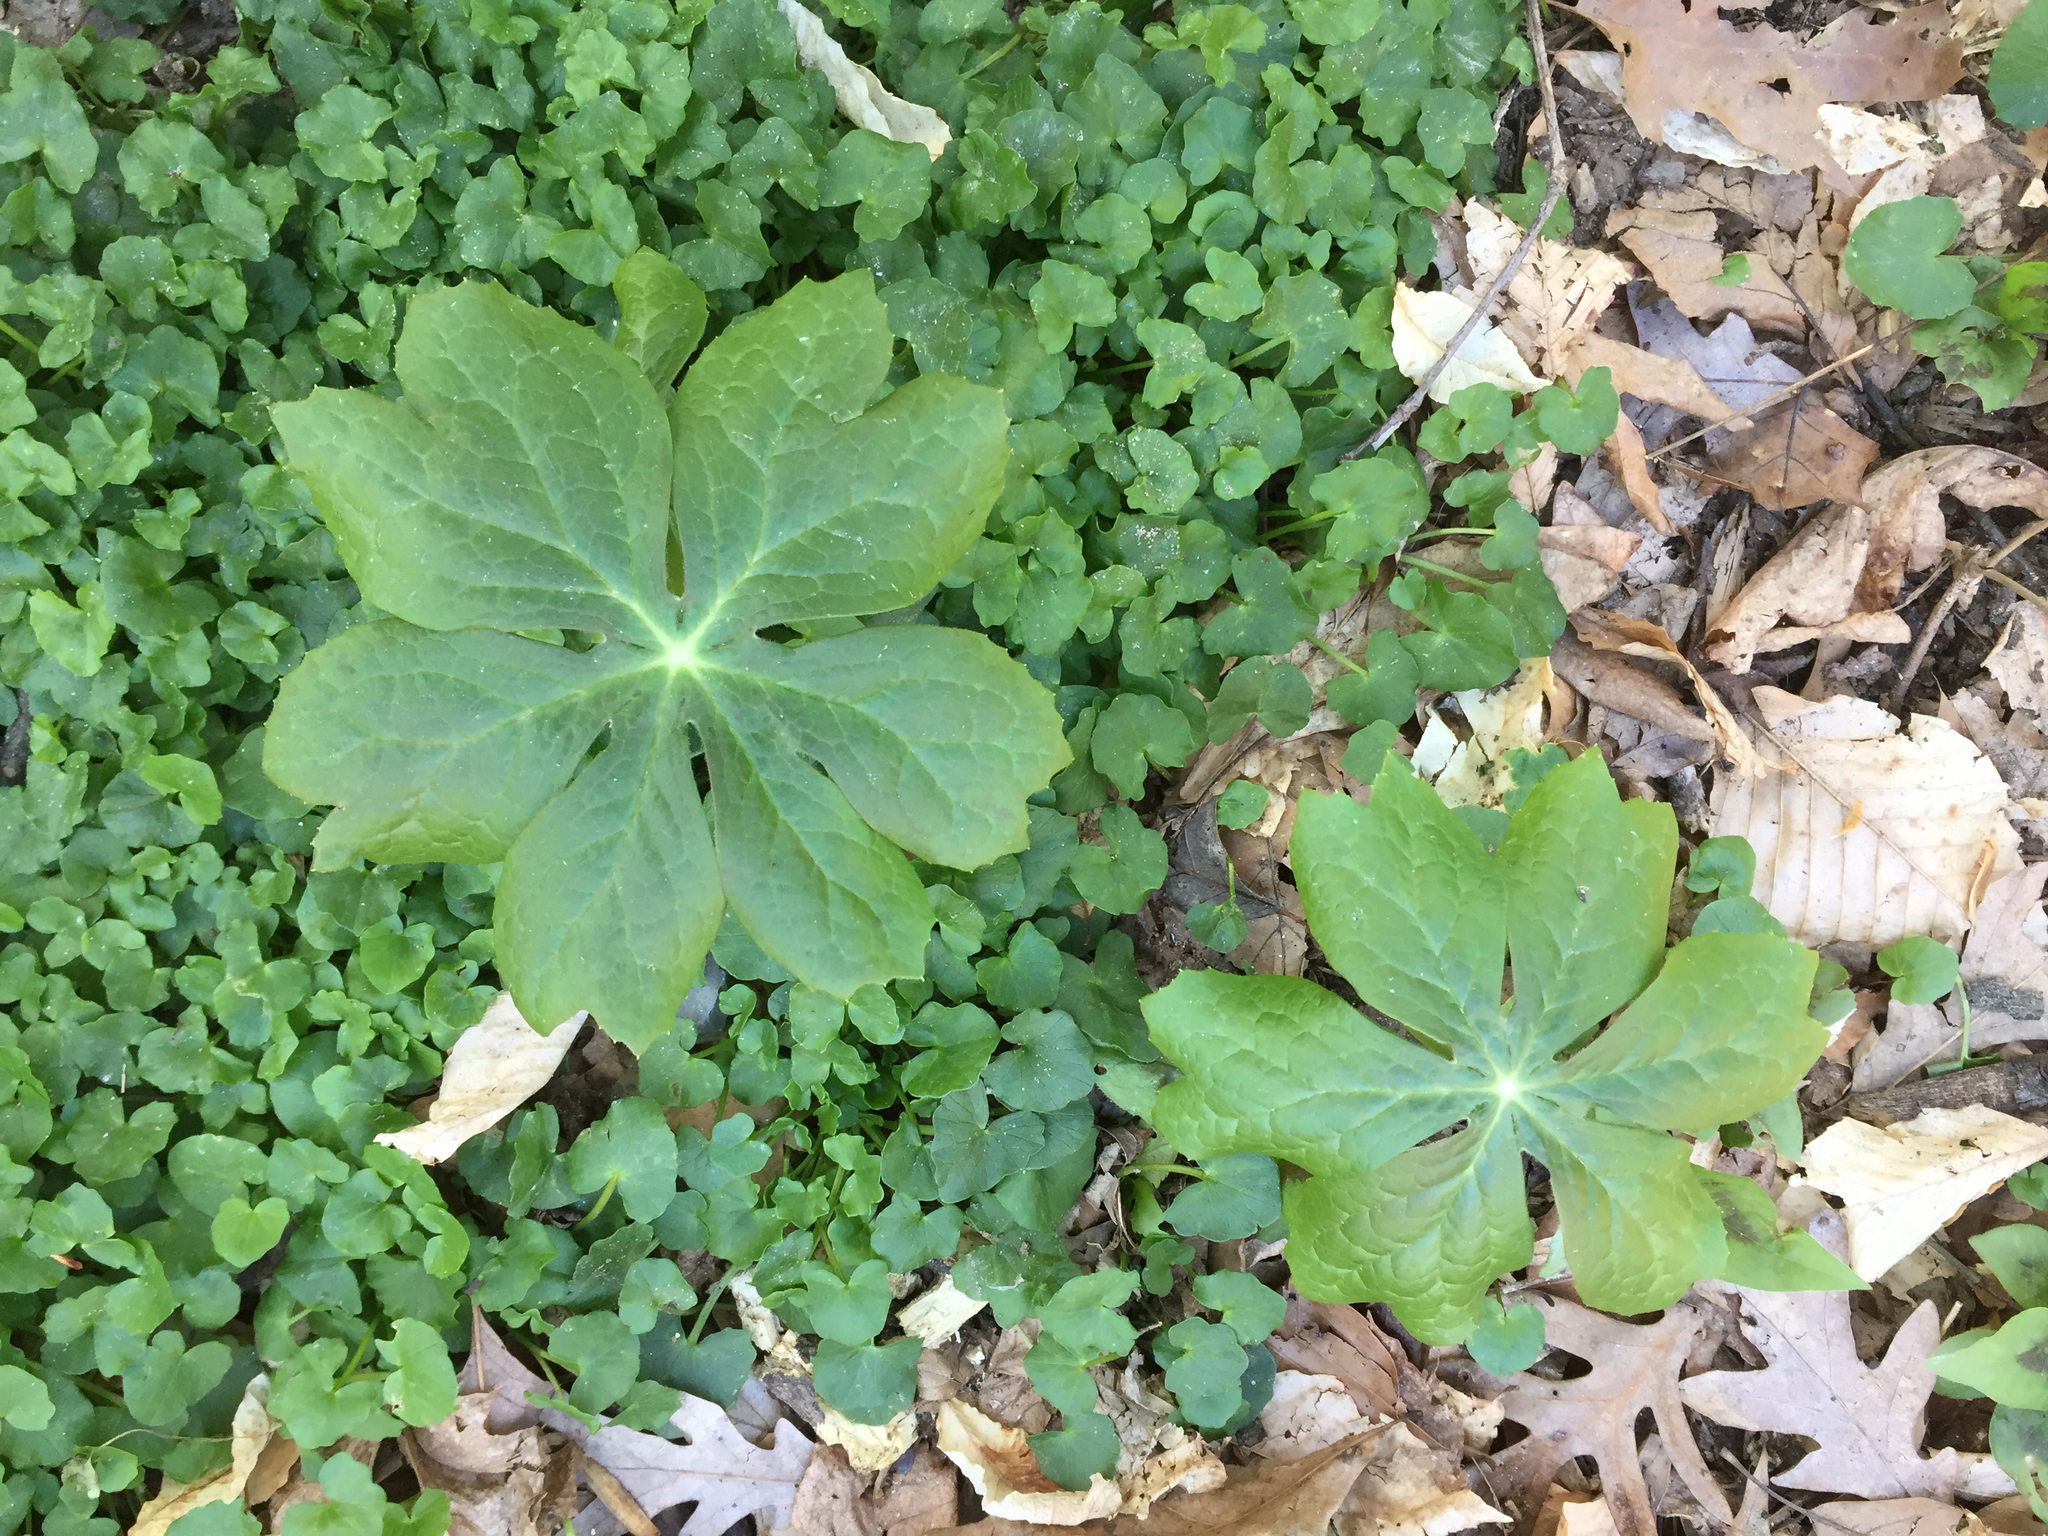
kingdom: Plantae
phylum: Tracheophyta
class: Magnoliopsida
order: Ranunculales
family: Berberidaceae
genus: Podophyllum
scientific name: Podophyllum peltatum
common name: Wild mandrake
